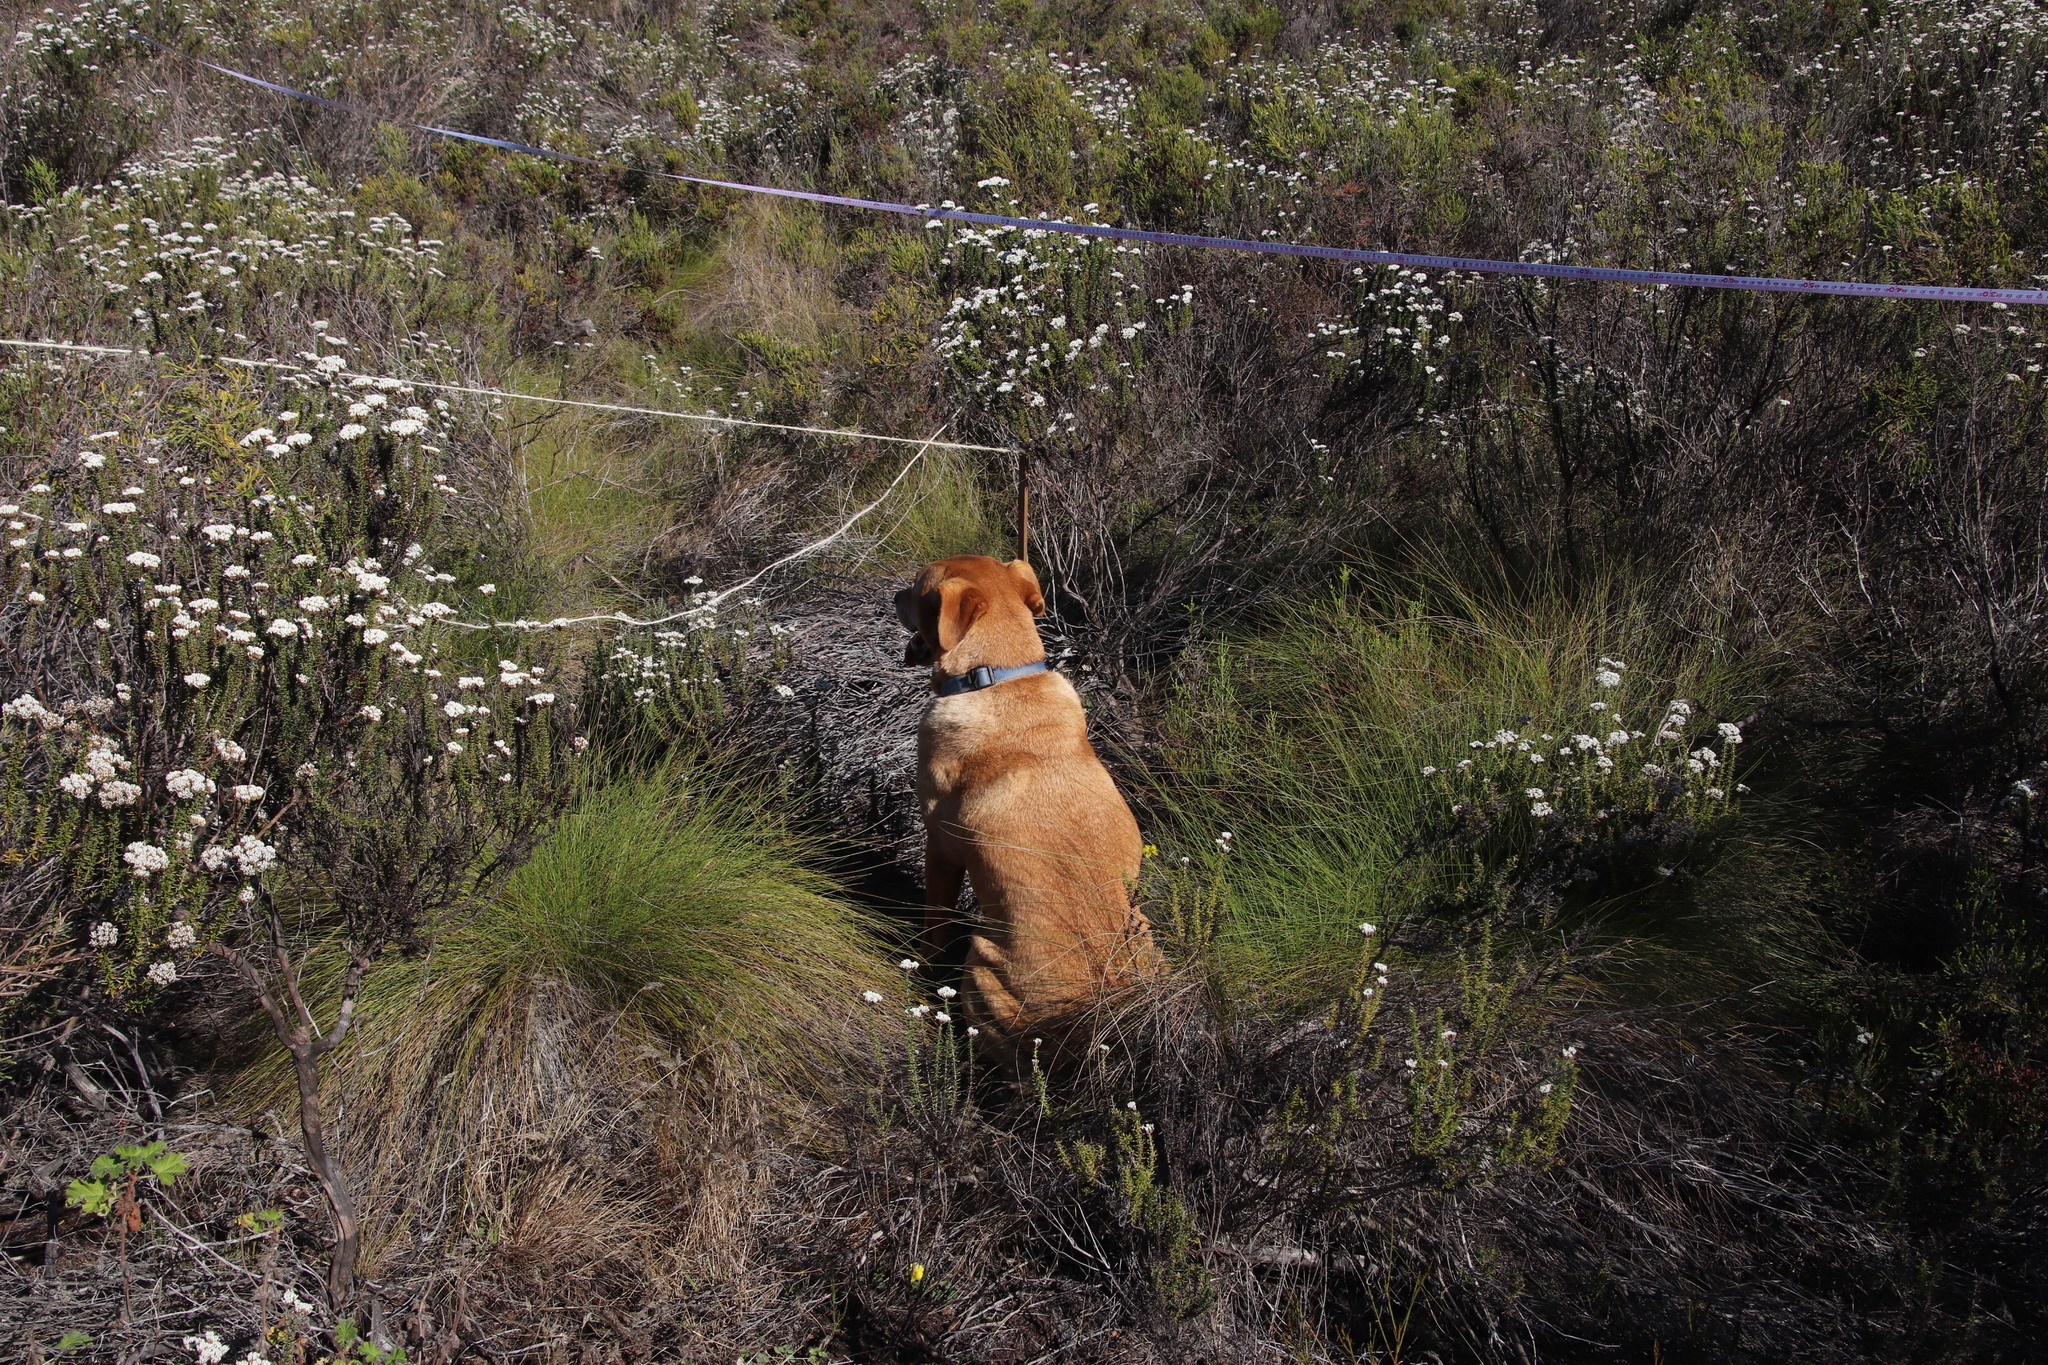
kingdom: Plantae
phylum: Tracheophyta
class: Liliopsida
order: Poales
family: Poaceae
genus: Tenaxia
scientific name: Tenaxia stricta
